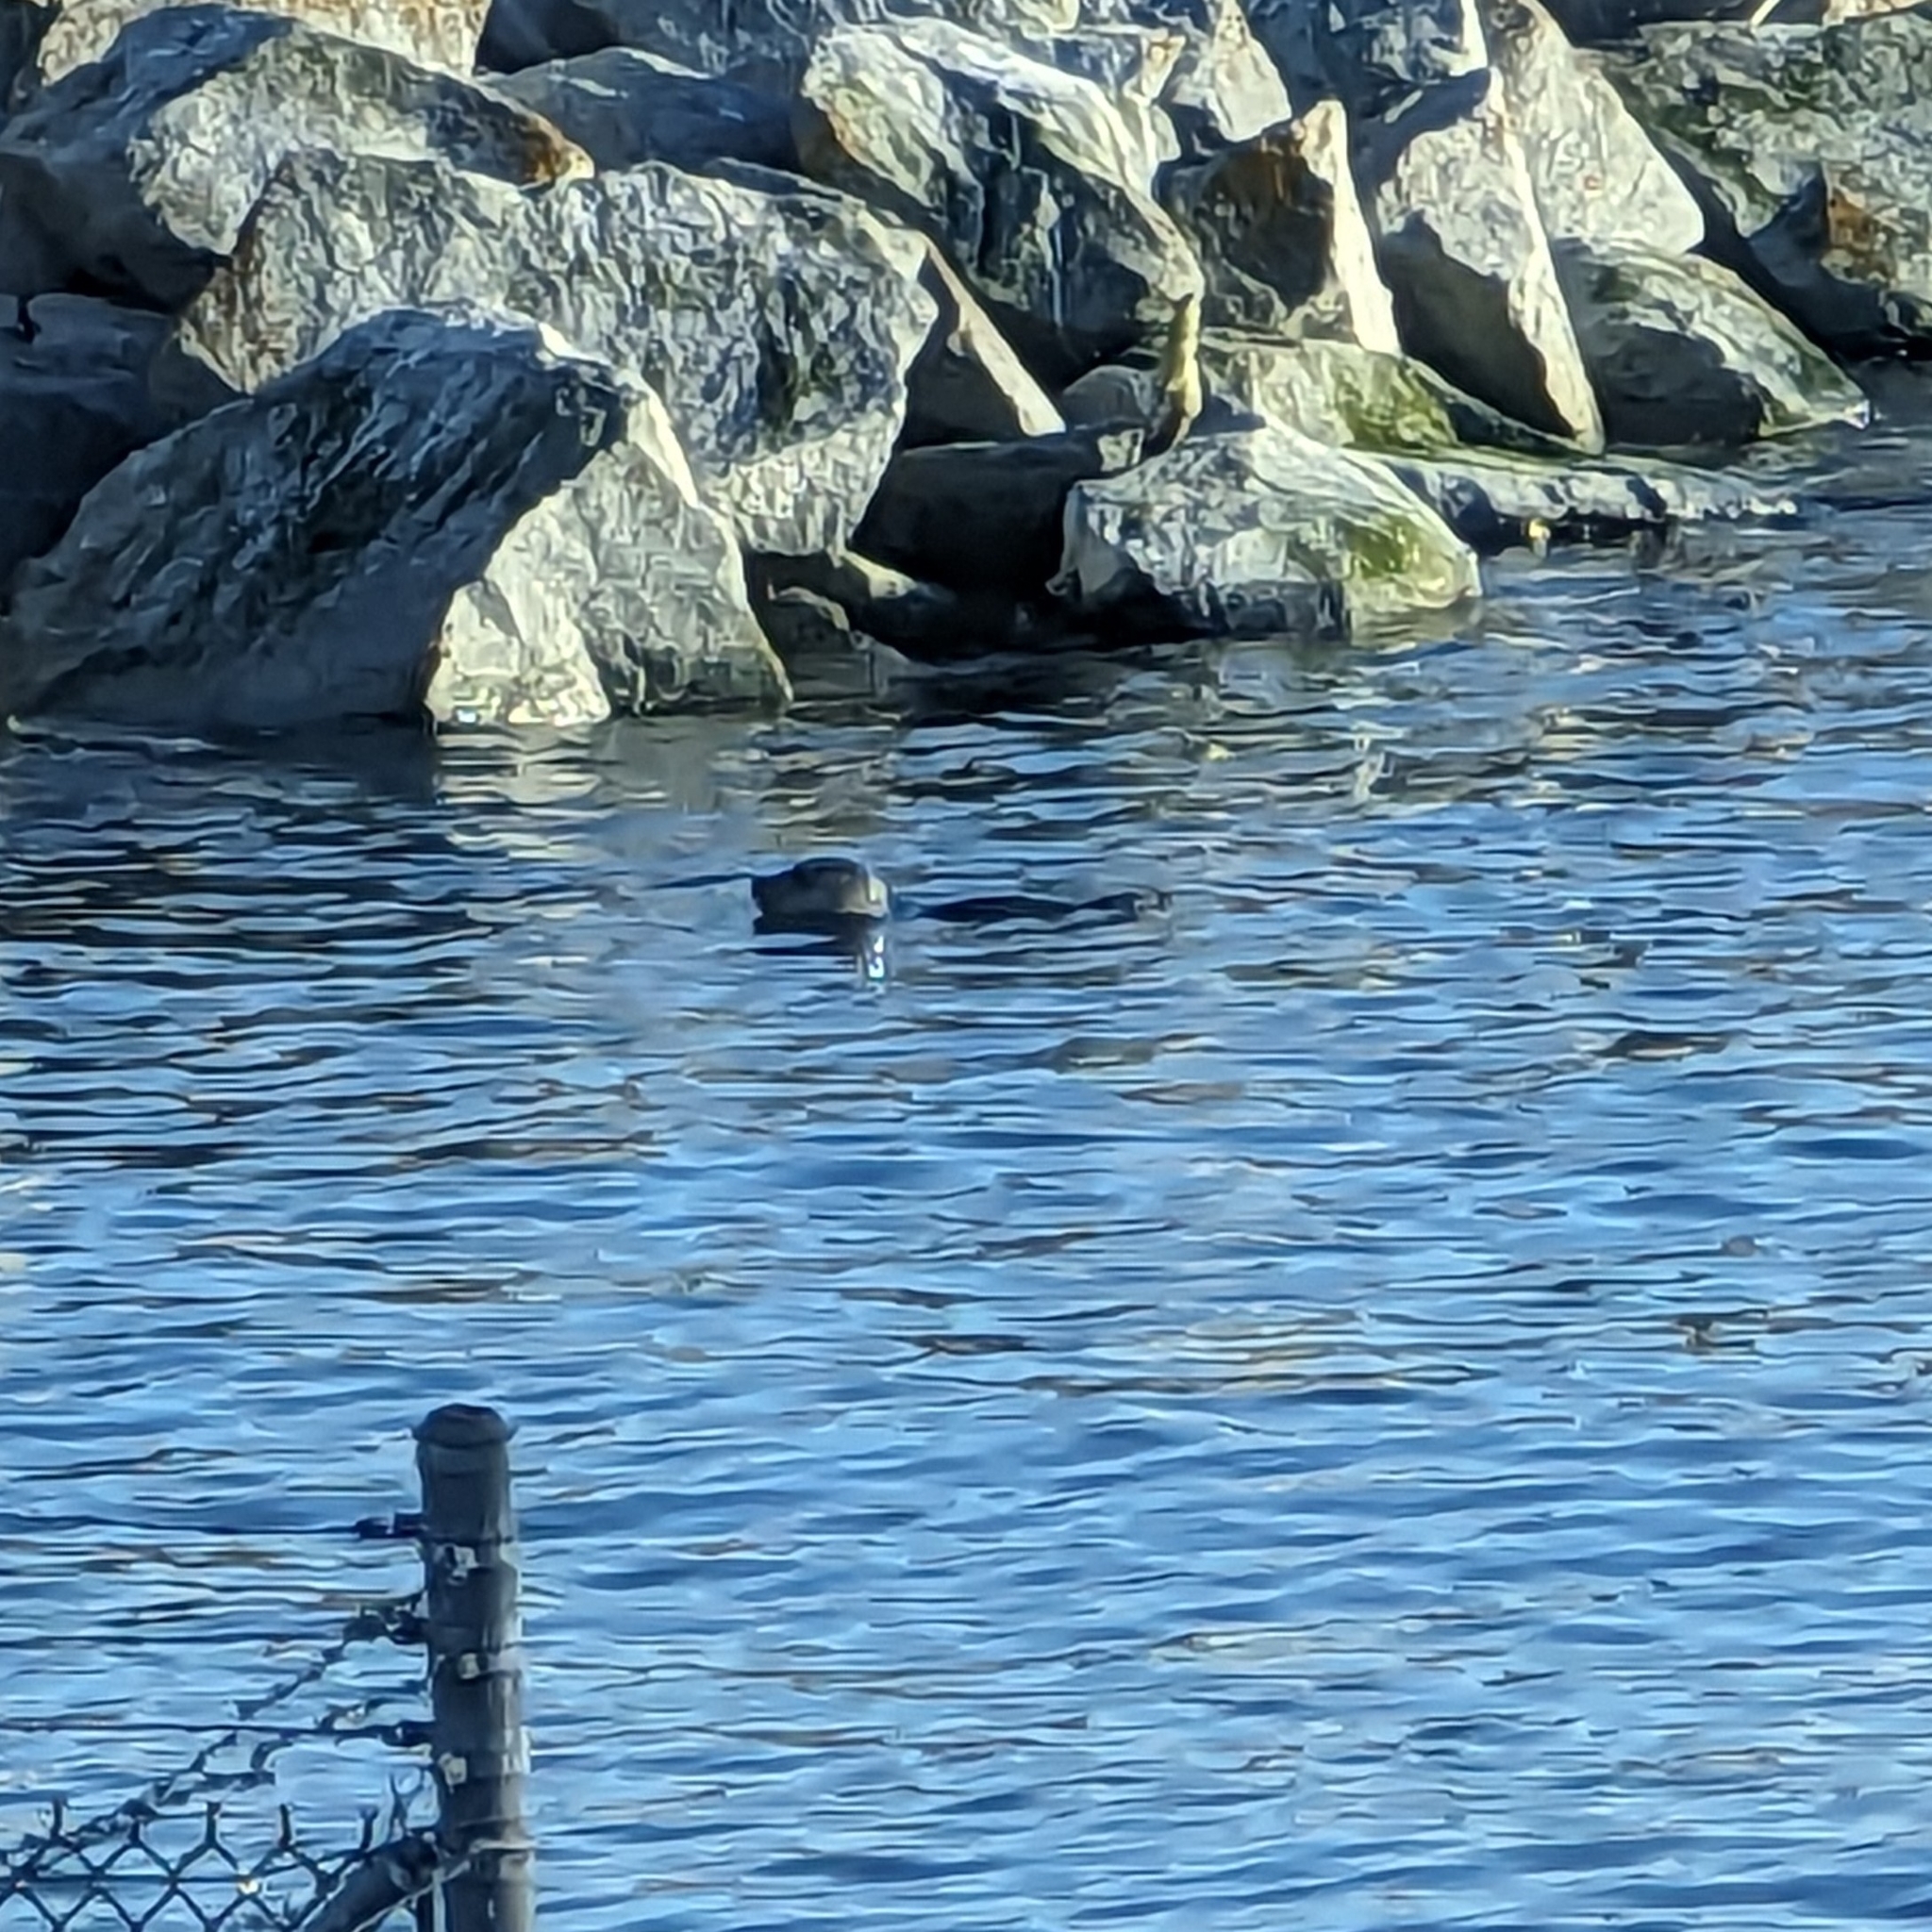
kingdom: Animalia
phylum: Chordata
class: Mammalia
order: Carnivora
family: Phocidae
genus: Phoca
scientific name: Phoca vitulina
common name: Harbor seal
